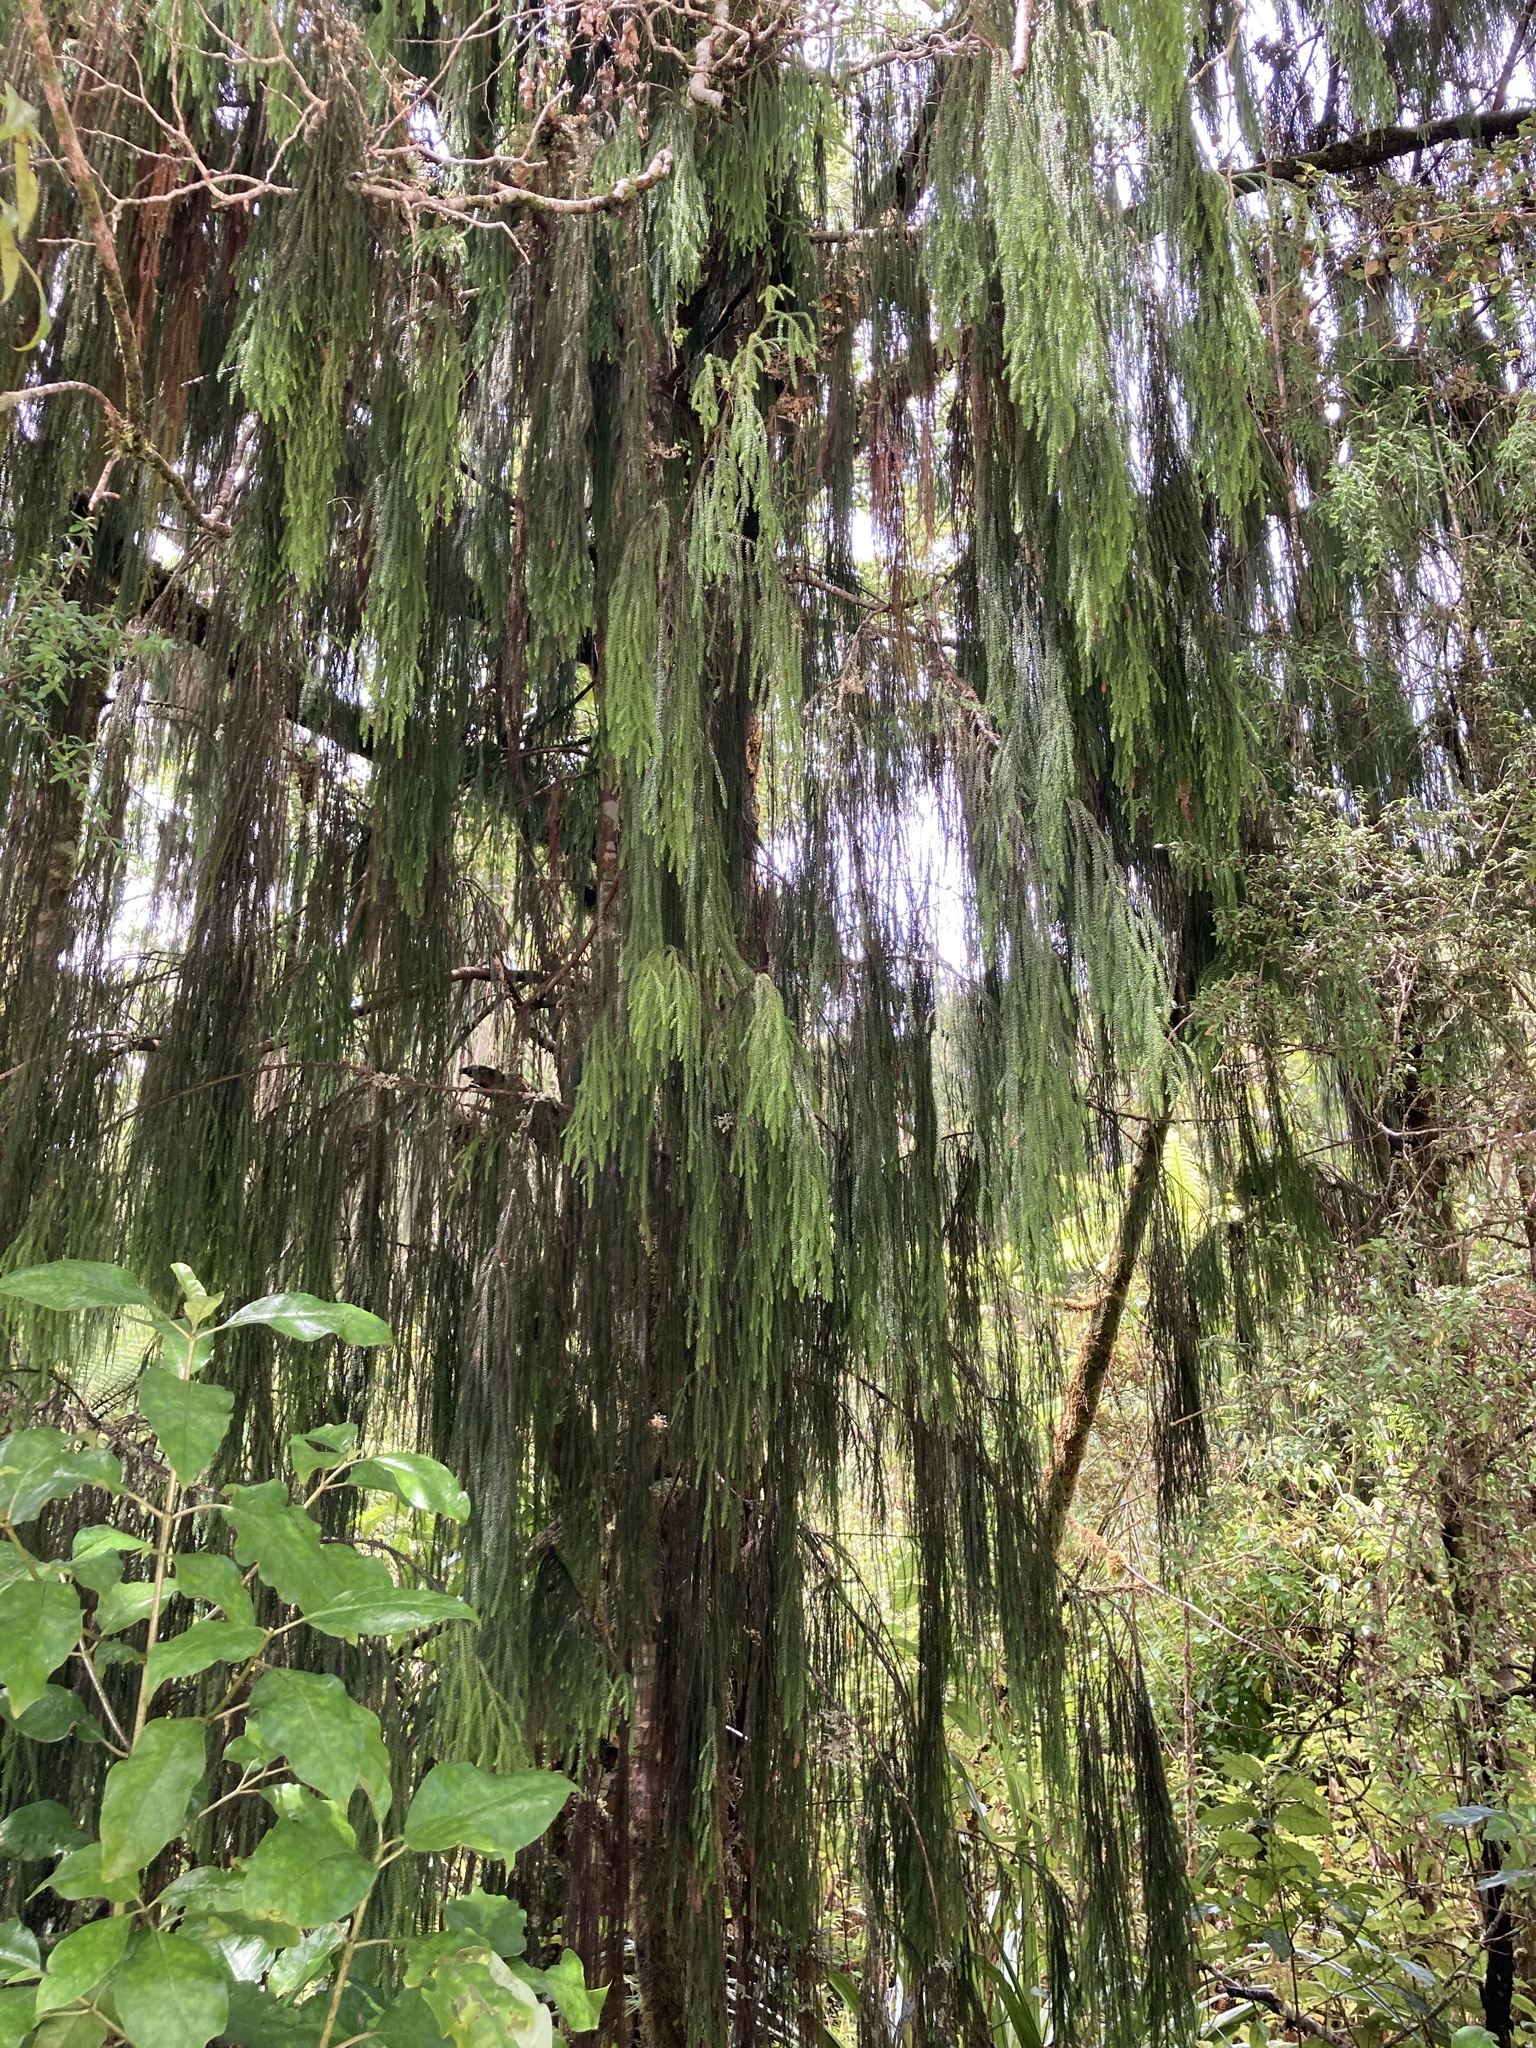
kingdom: Plantae
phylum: Tracheophyta
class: Pinopsida
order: Pinales
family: Podocarpaceae
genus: Dacrydium
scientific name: Dacrydium cupressinum
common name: Red pine
